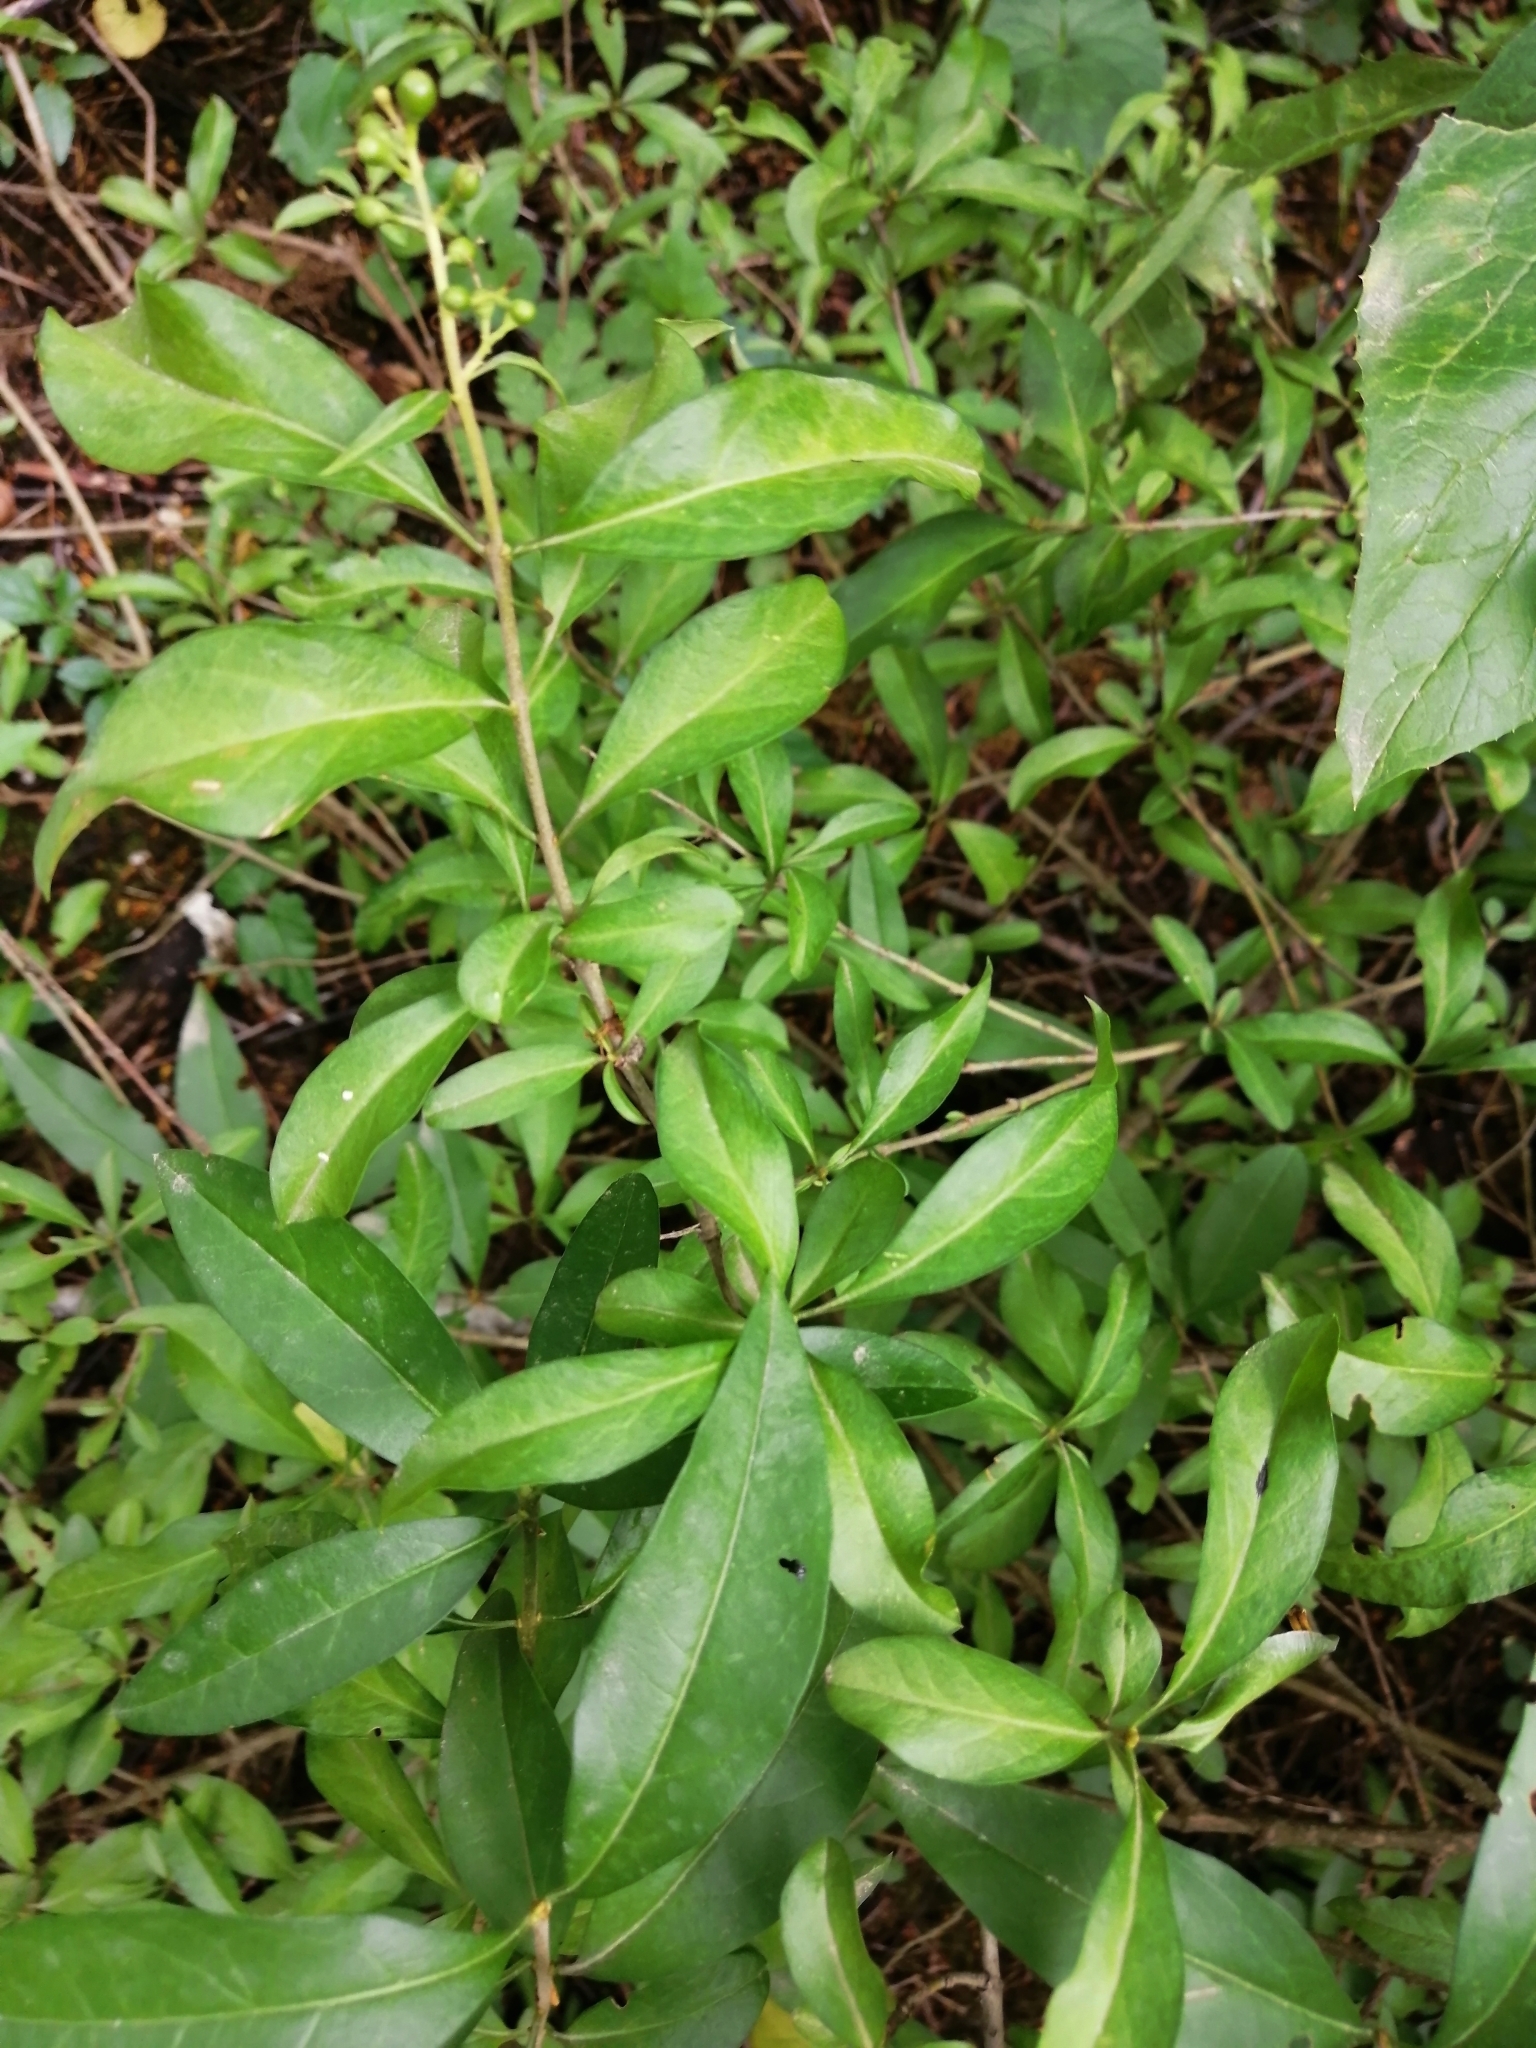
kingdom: Plantae
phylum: Tracheophyta
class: Magnoliopsida
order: Lamiales
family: Oleaceae
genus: Ligustrum
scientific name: Ligustrum vulgare
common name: Wild privet
